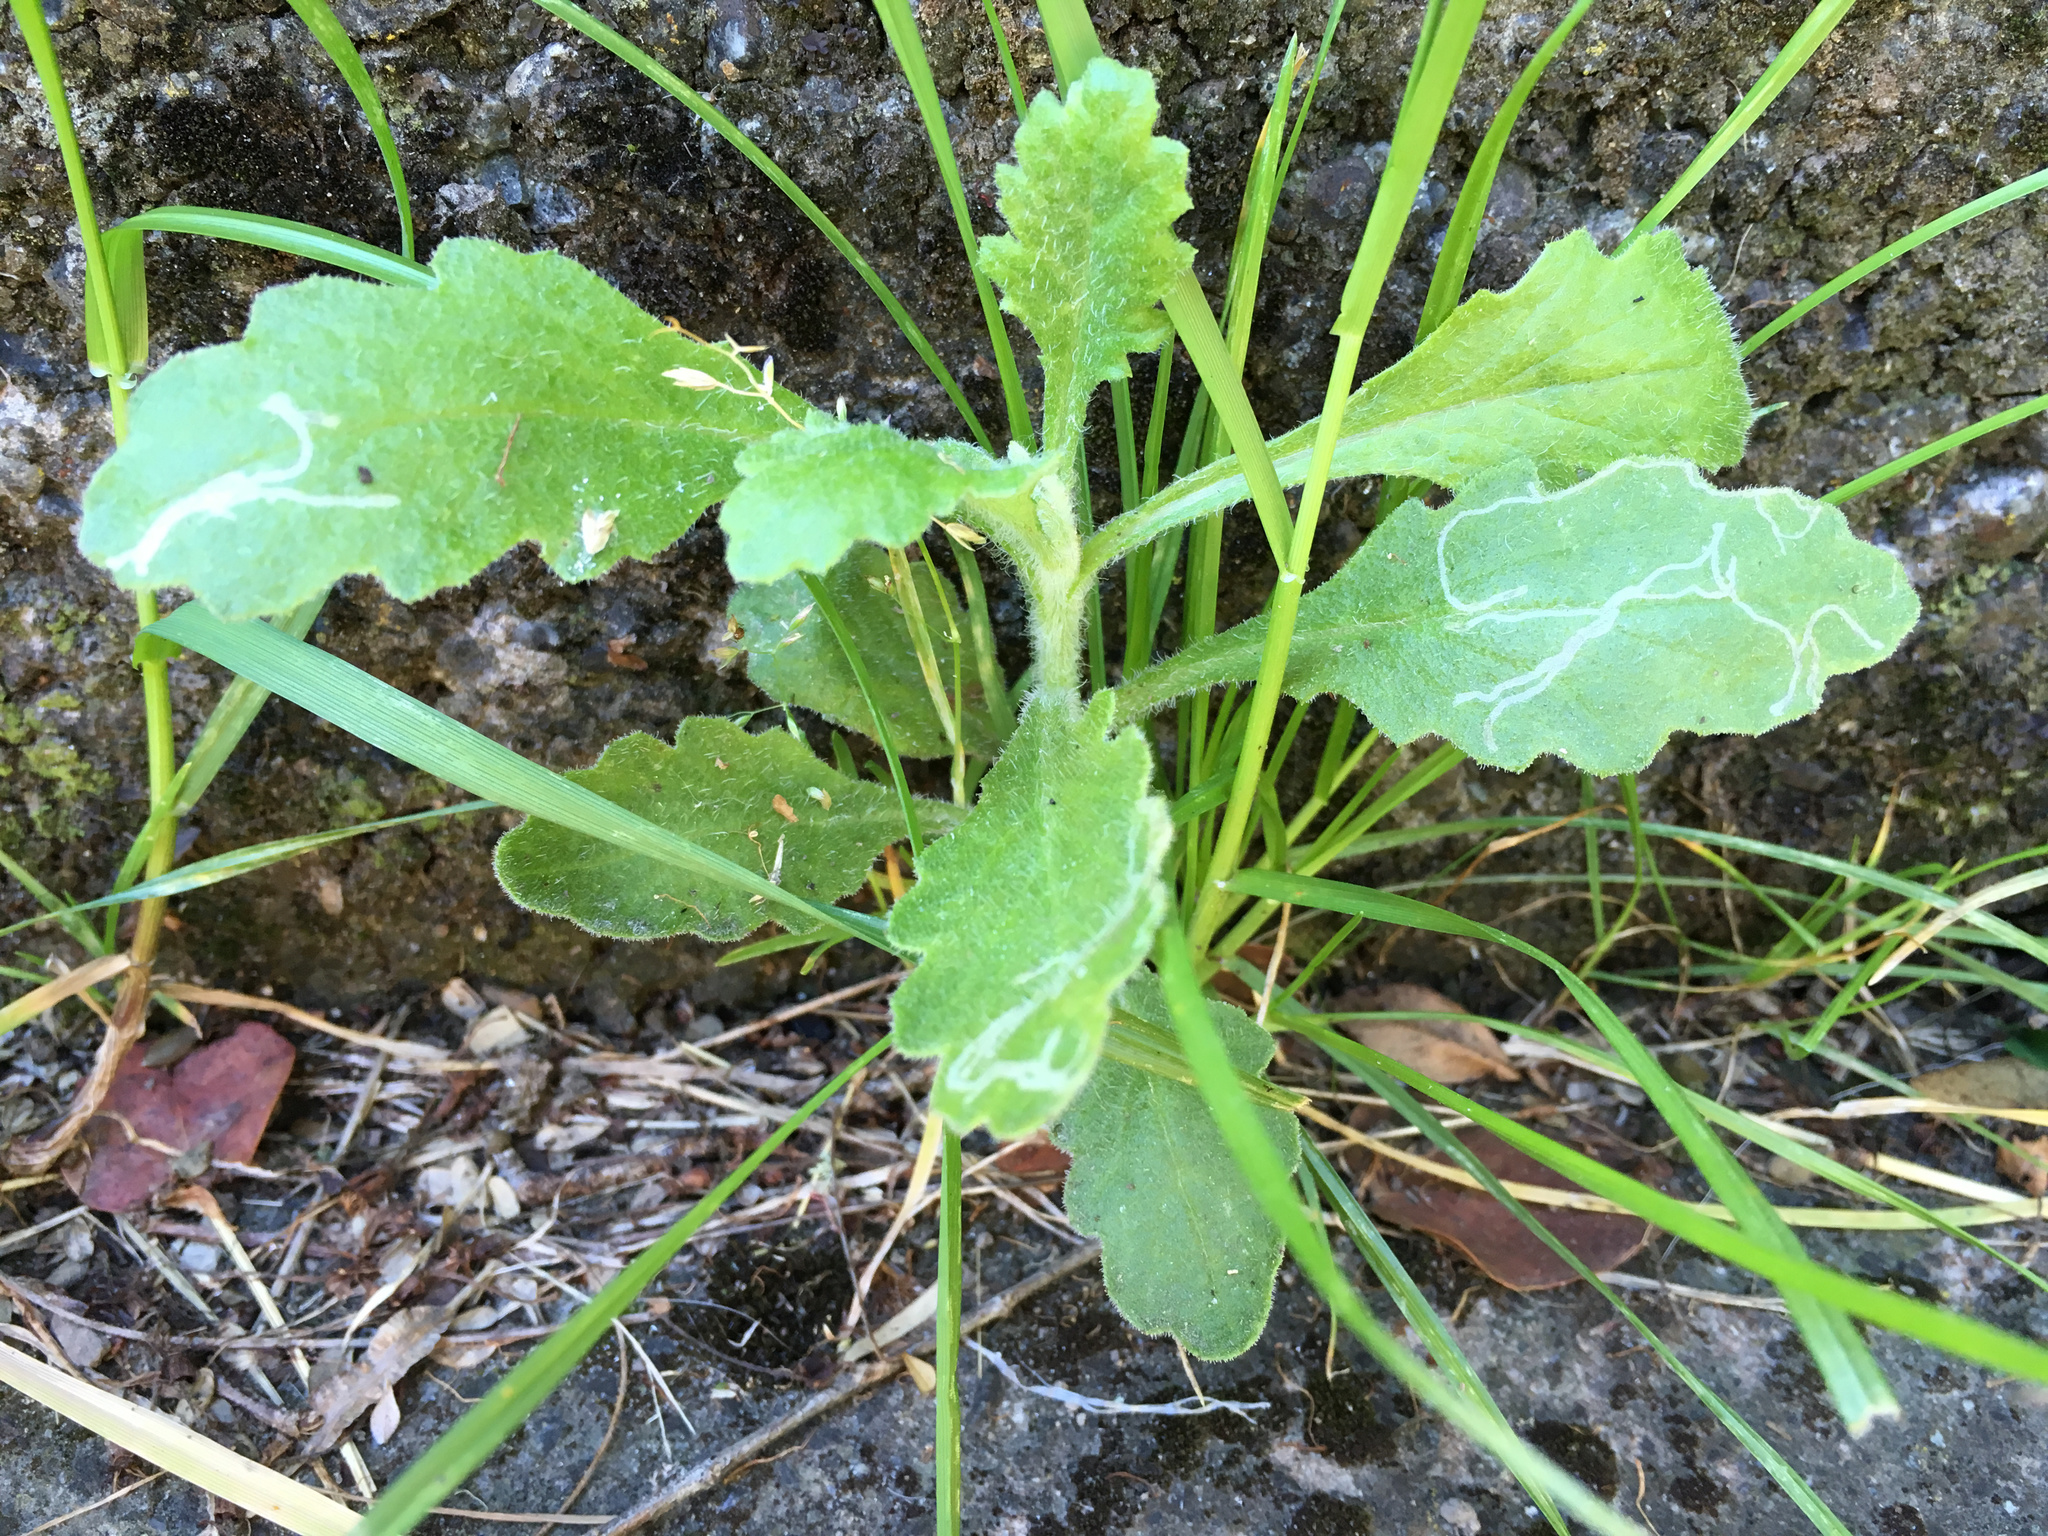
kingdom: Plantae
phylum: Tracheophyta
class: Magnoliopsida
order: Asterales
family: Asteraceae
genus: Senecio
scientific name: Senecio glomeratus
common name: Cutleaf burnweed
